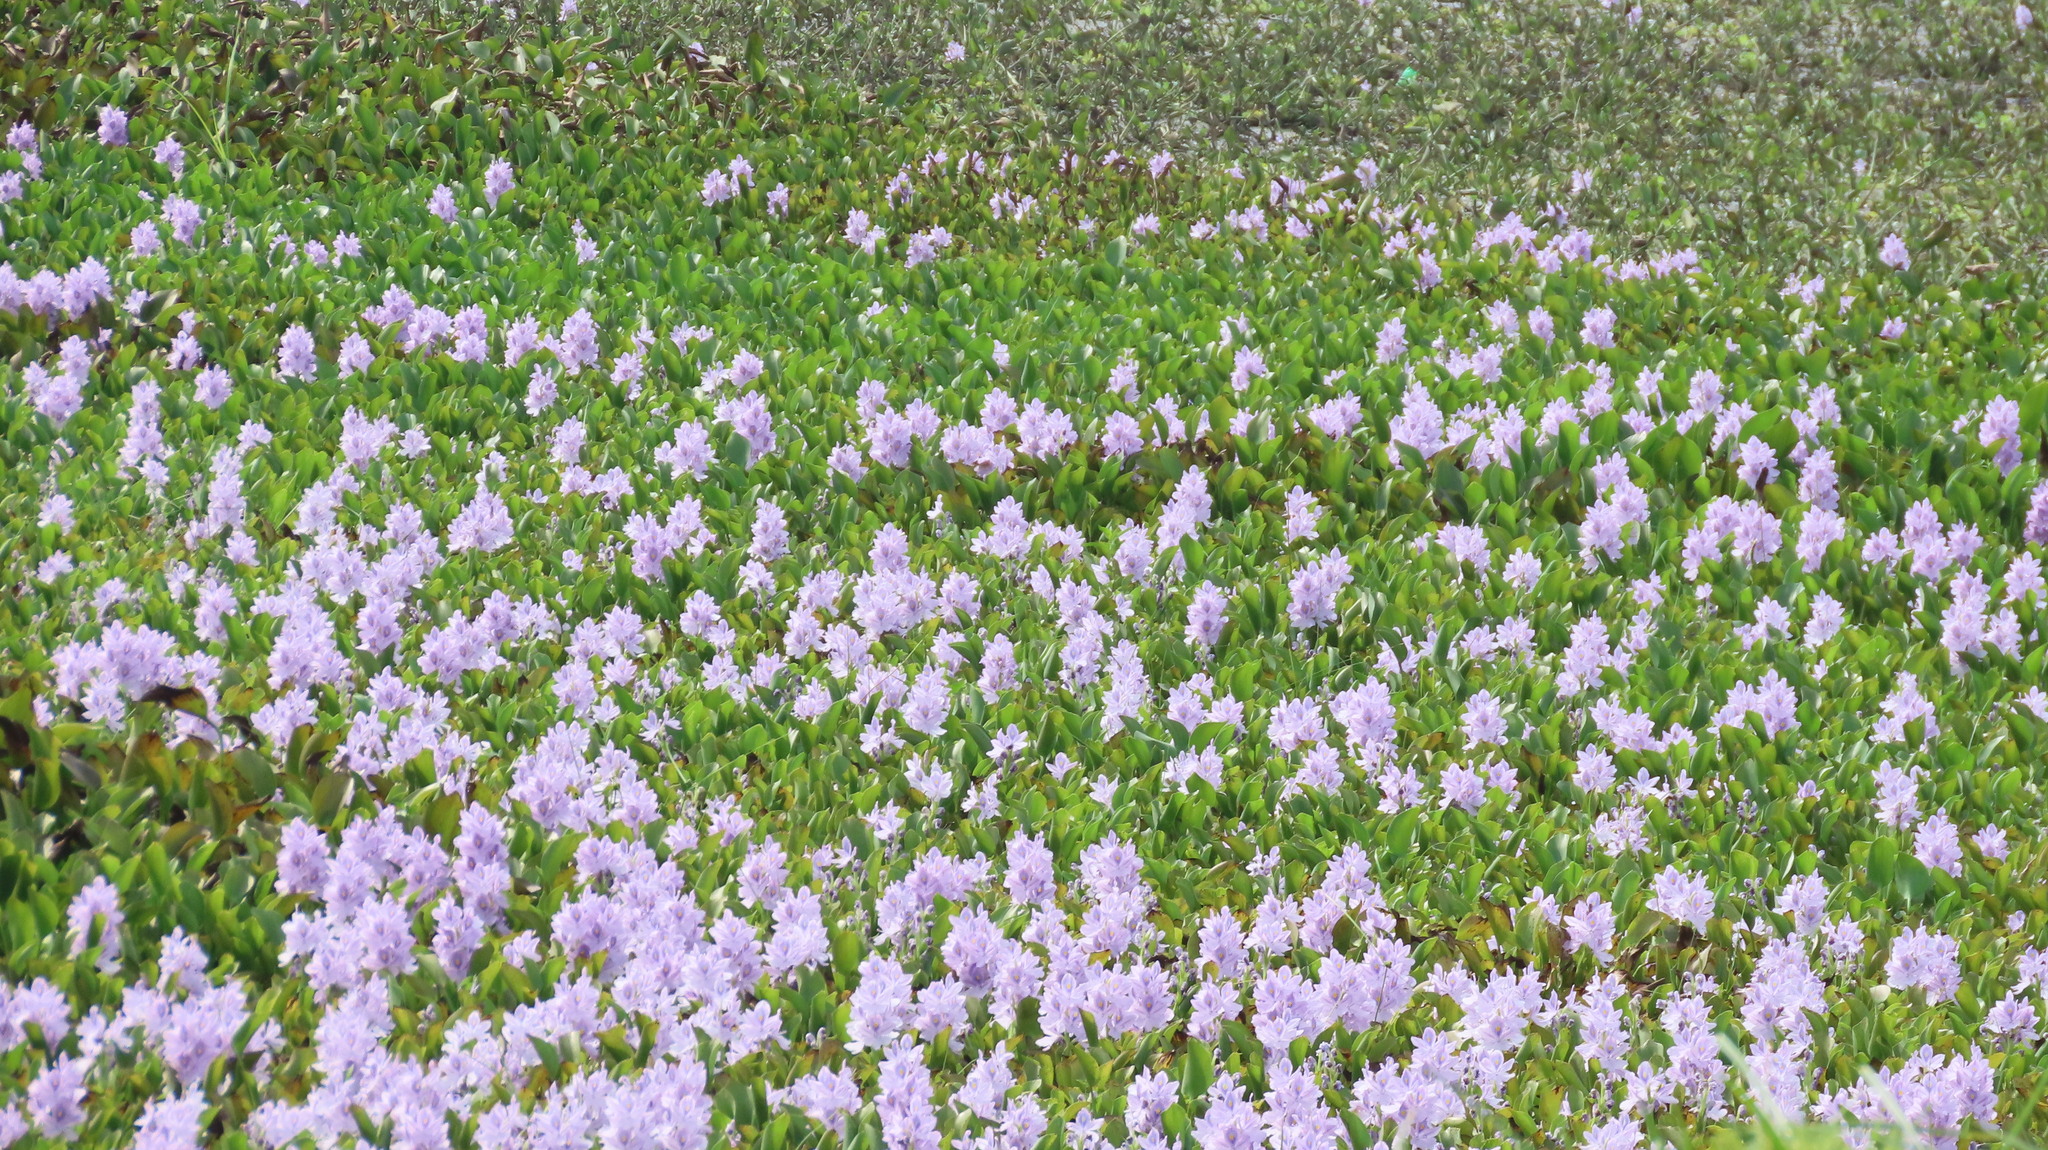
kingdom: Plantae
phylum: Tracheophyta
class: Liliopsida
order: Commelinales
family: Pontederiaceae
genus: Pontederia
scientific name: Pontederia crassipes
